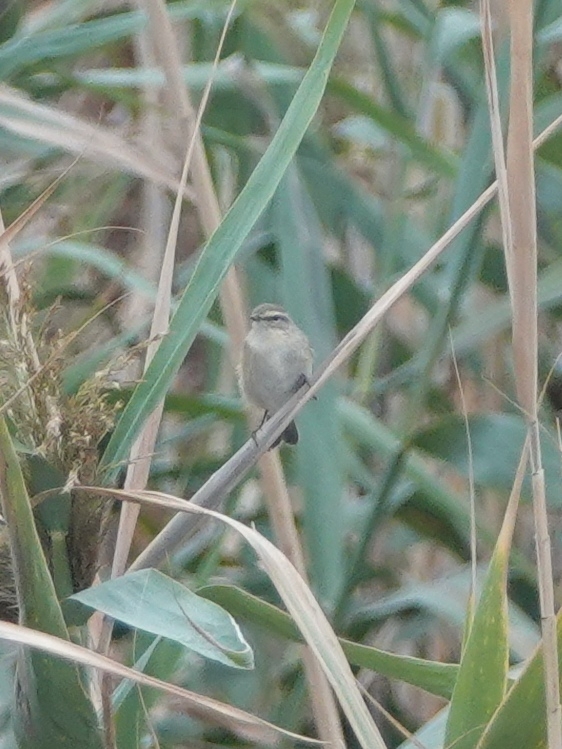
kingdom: Animalia
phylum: Chordata
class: Aves
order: Passeriformes
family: Phylloscopidae
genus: Phylloscopus
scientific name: Phylloscopus collybita
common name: Common chiffchaff
